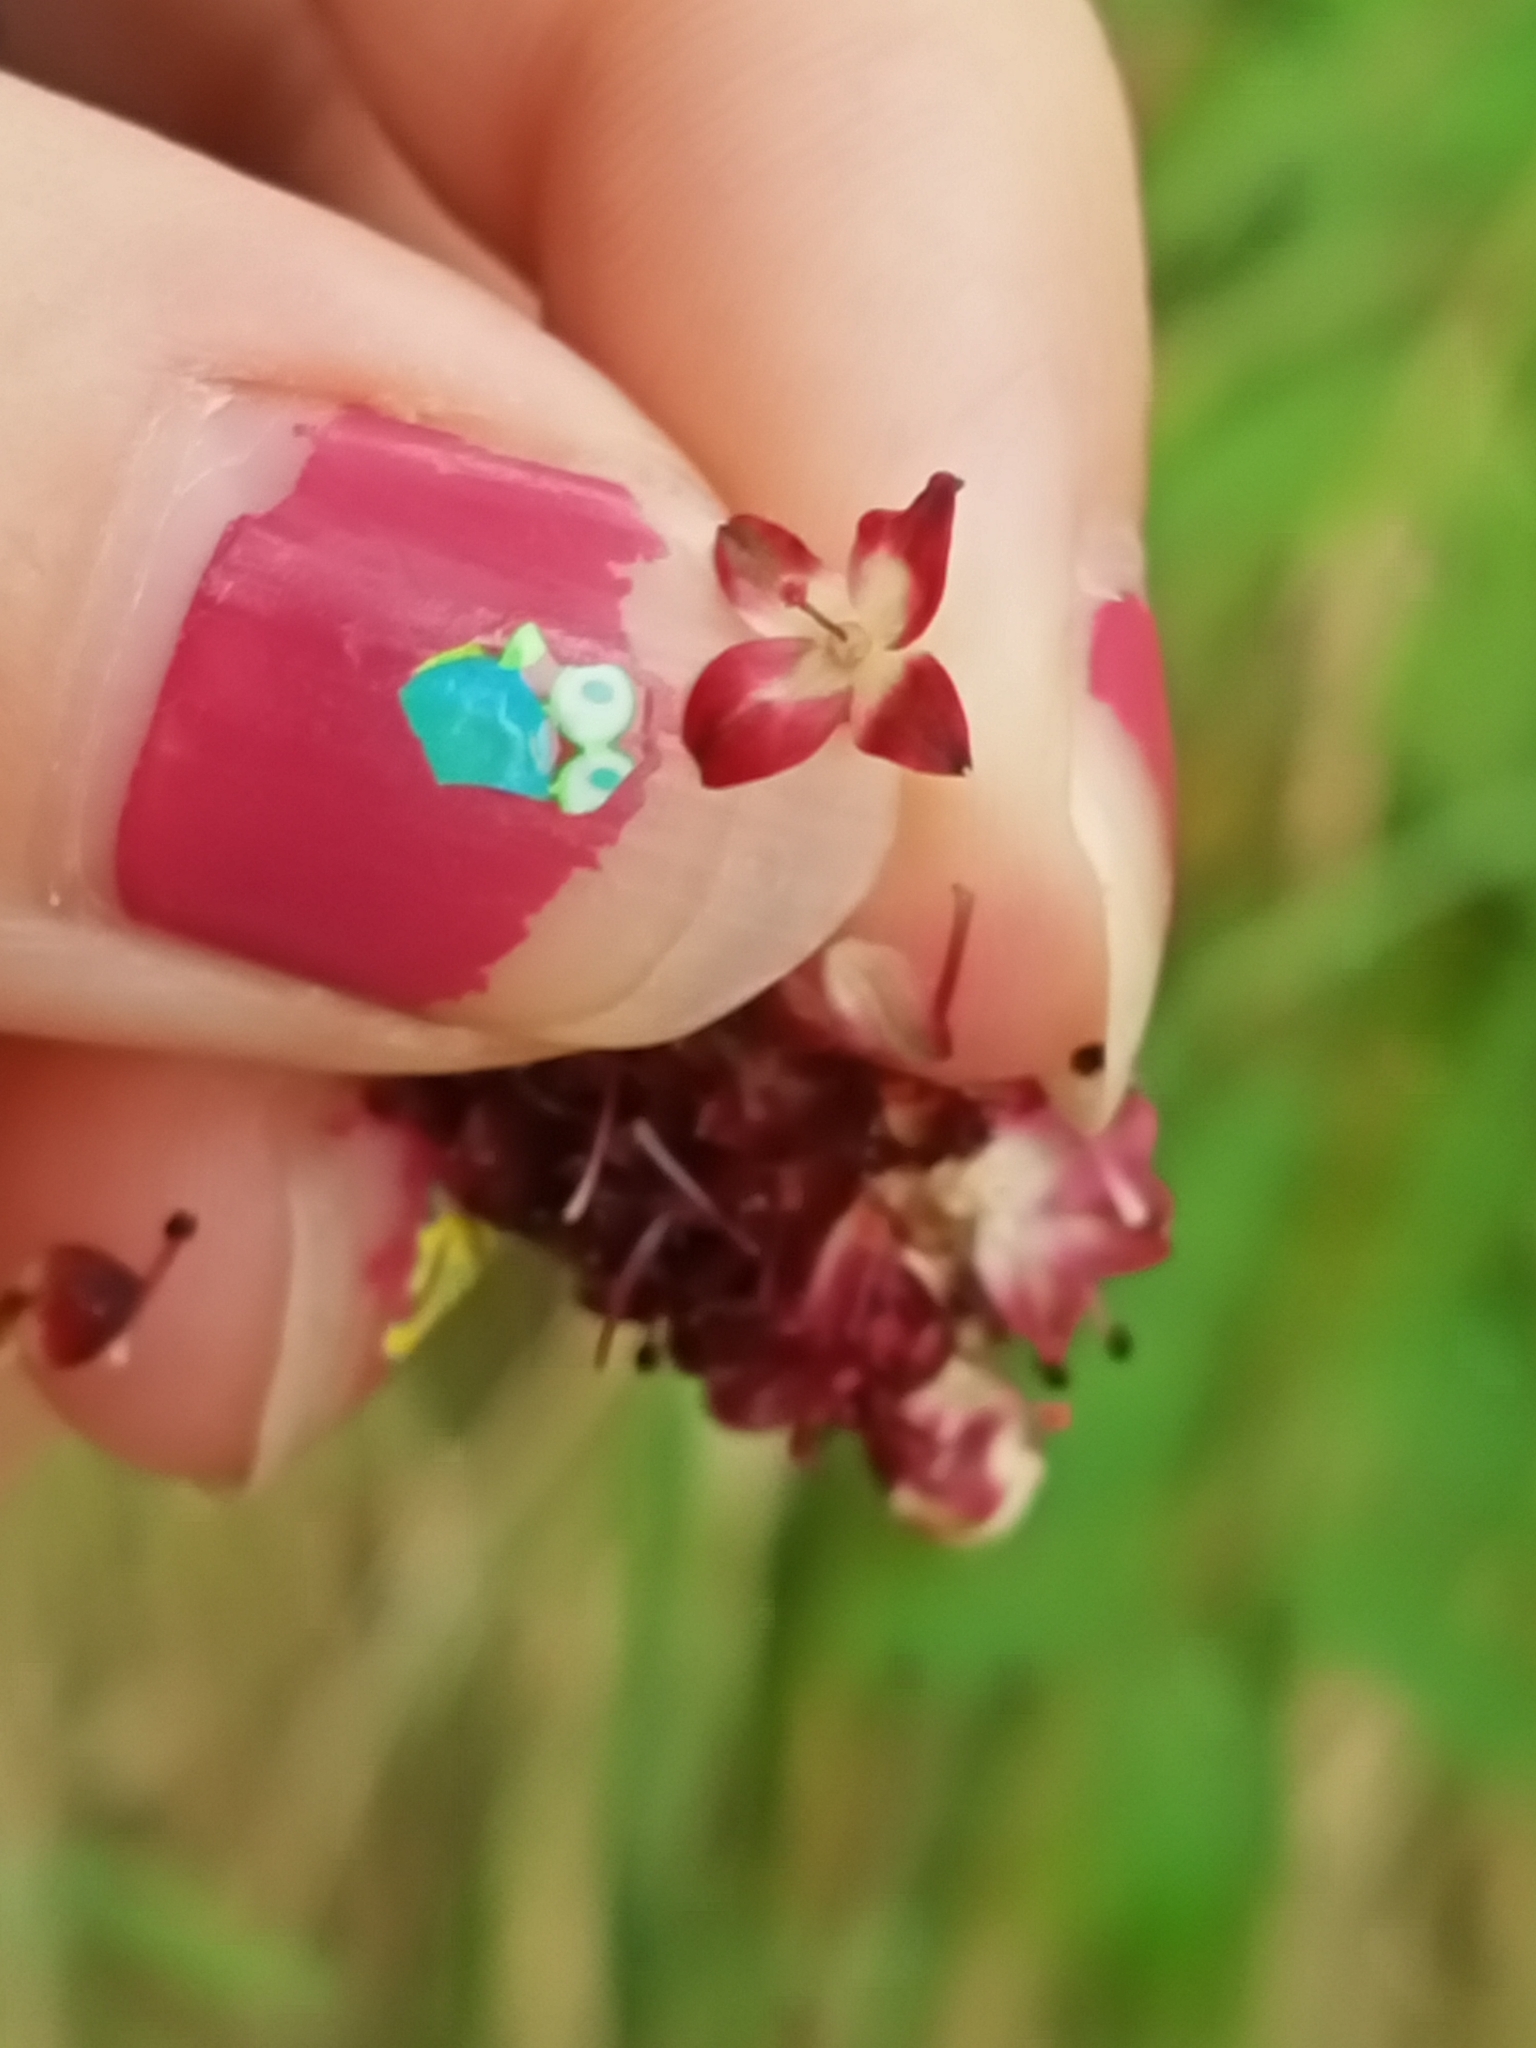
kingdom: Plantae
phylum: Tracheophyta
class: Magnoliopsida
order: Rosales
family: Rosaceae
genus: Sanguisorba
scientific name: Sanguisorba officinalis
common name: Great burnet
